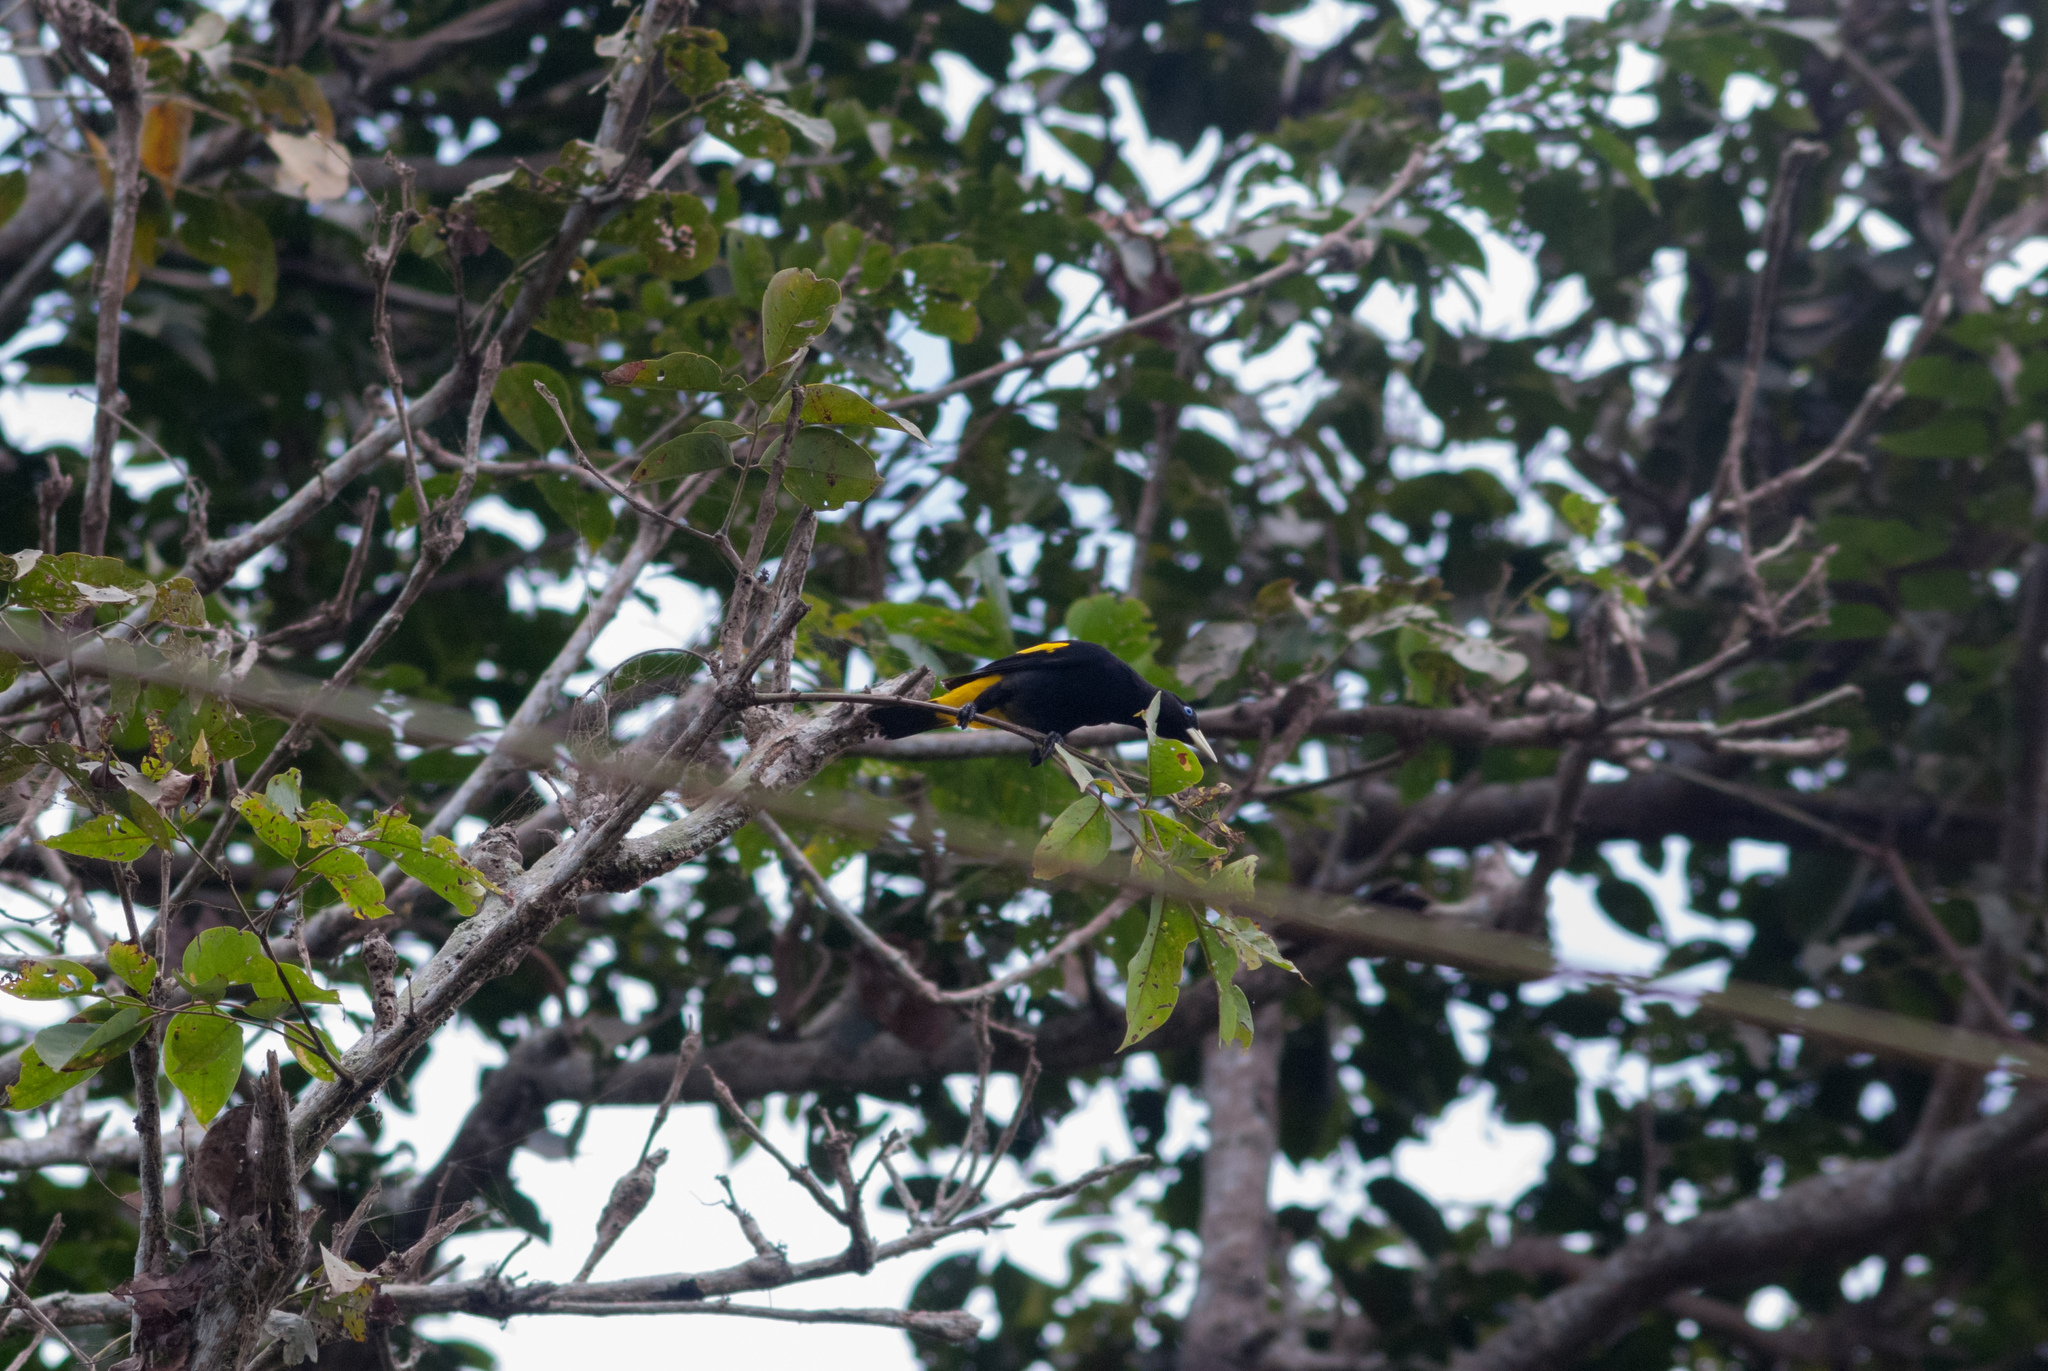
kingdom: Animalia
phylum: Chordata
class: Aves
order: Passeriformes
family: Icteridae
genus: Cacicus
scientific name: Cacicus cela
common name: Yellow-rumped cacique
